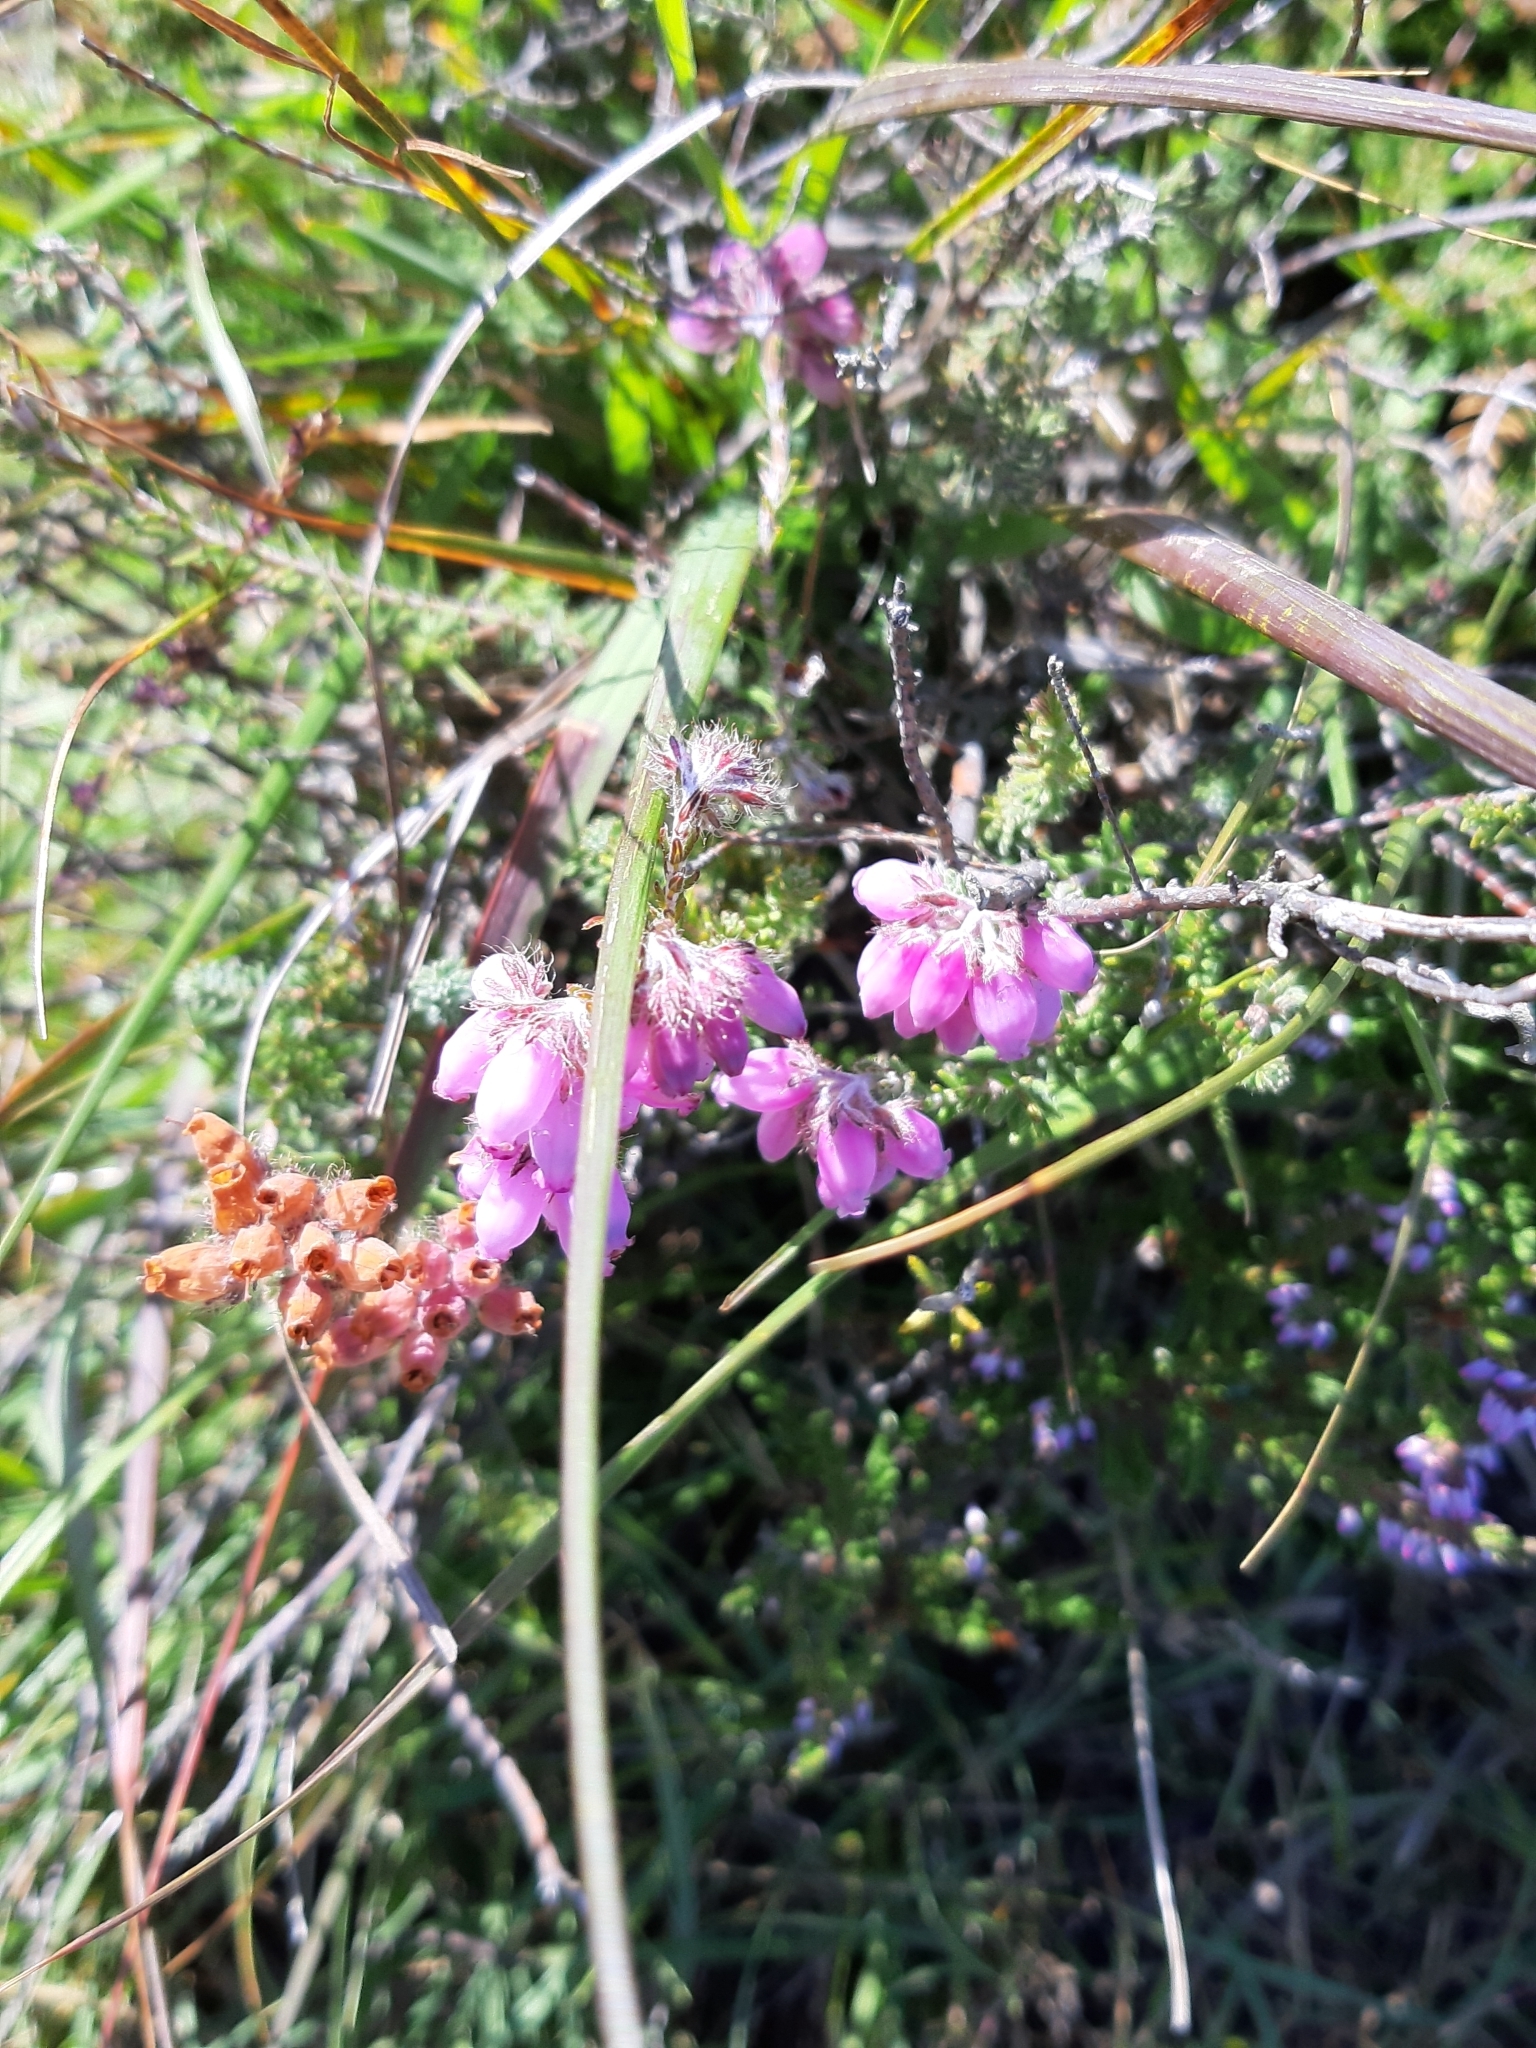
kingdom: Plantae
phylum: Tracheophyta
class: Magnoliopsida
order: Ericales
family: Ericaceae
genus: Erica
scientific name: Erica tetralix
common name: Cross-leaved heath
